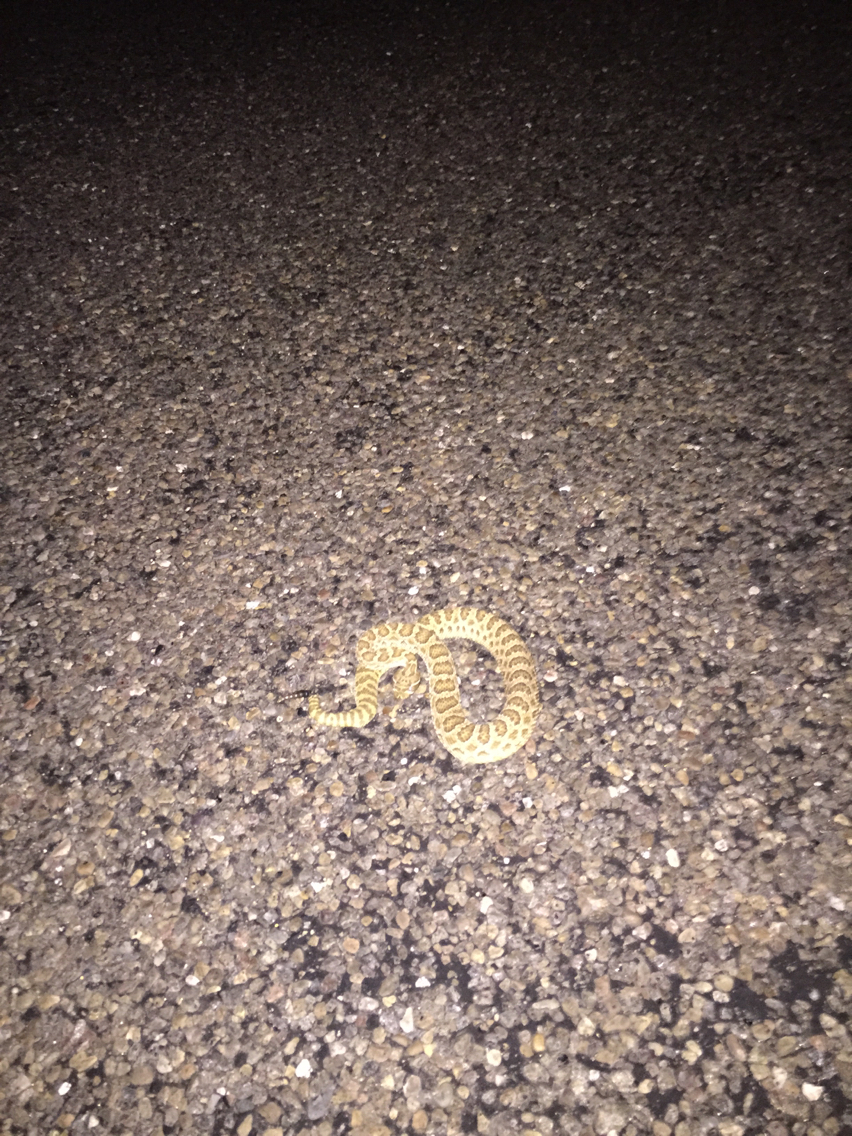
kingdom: Animalia
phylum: Chordata
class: Squamata
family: Viperidae
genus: Crotalus
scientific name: Crotalus viridis
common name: Prairie rattlesnake
